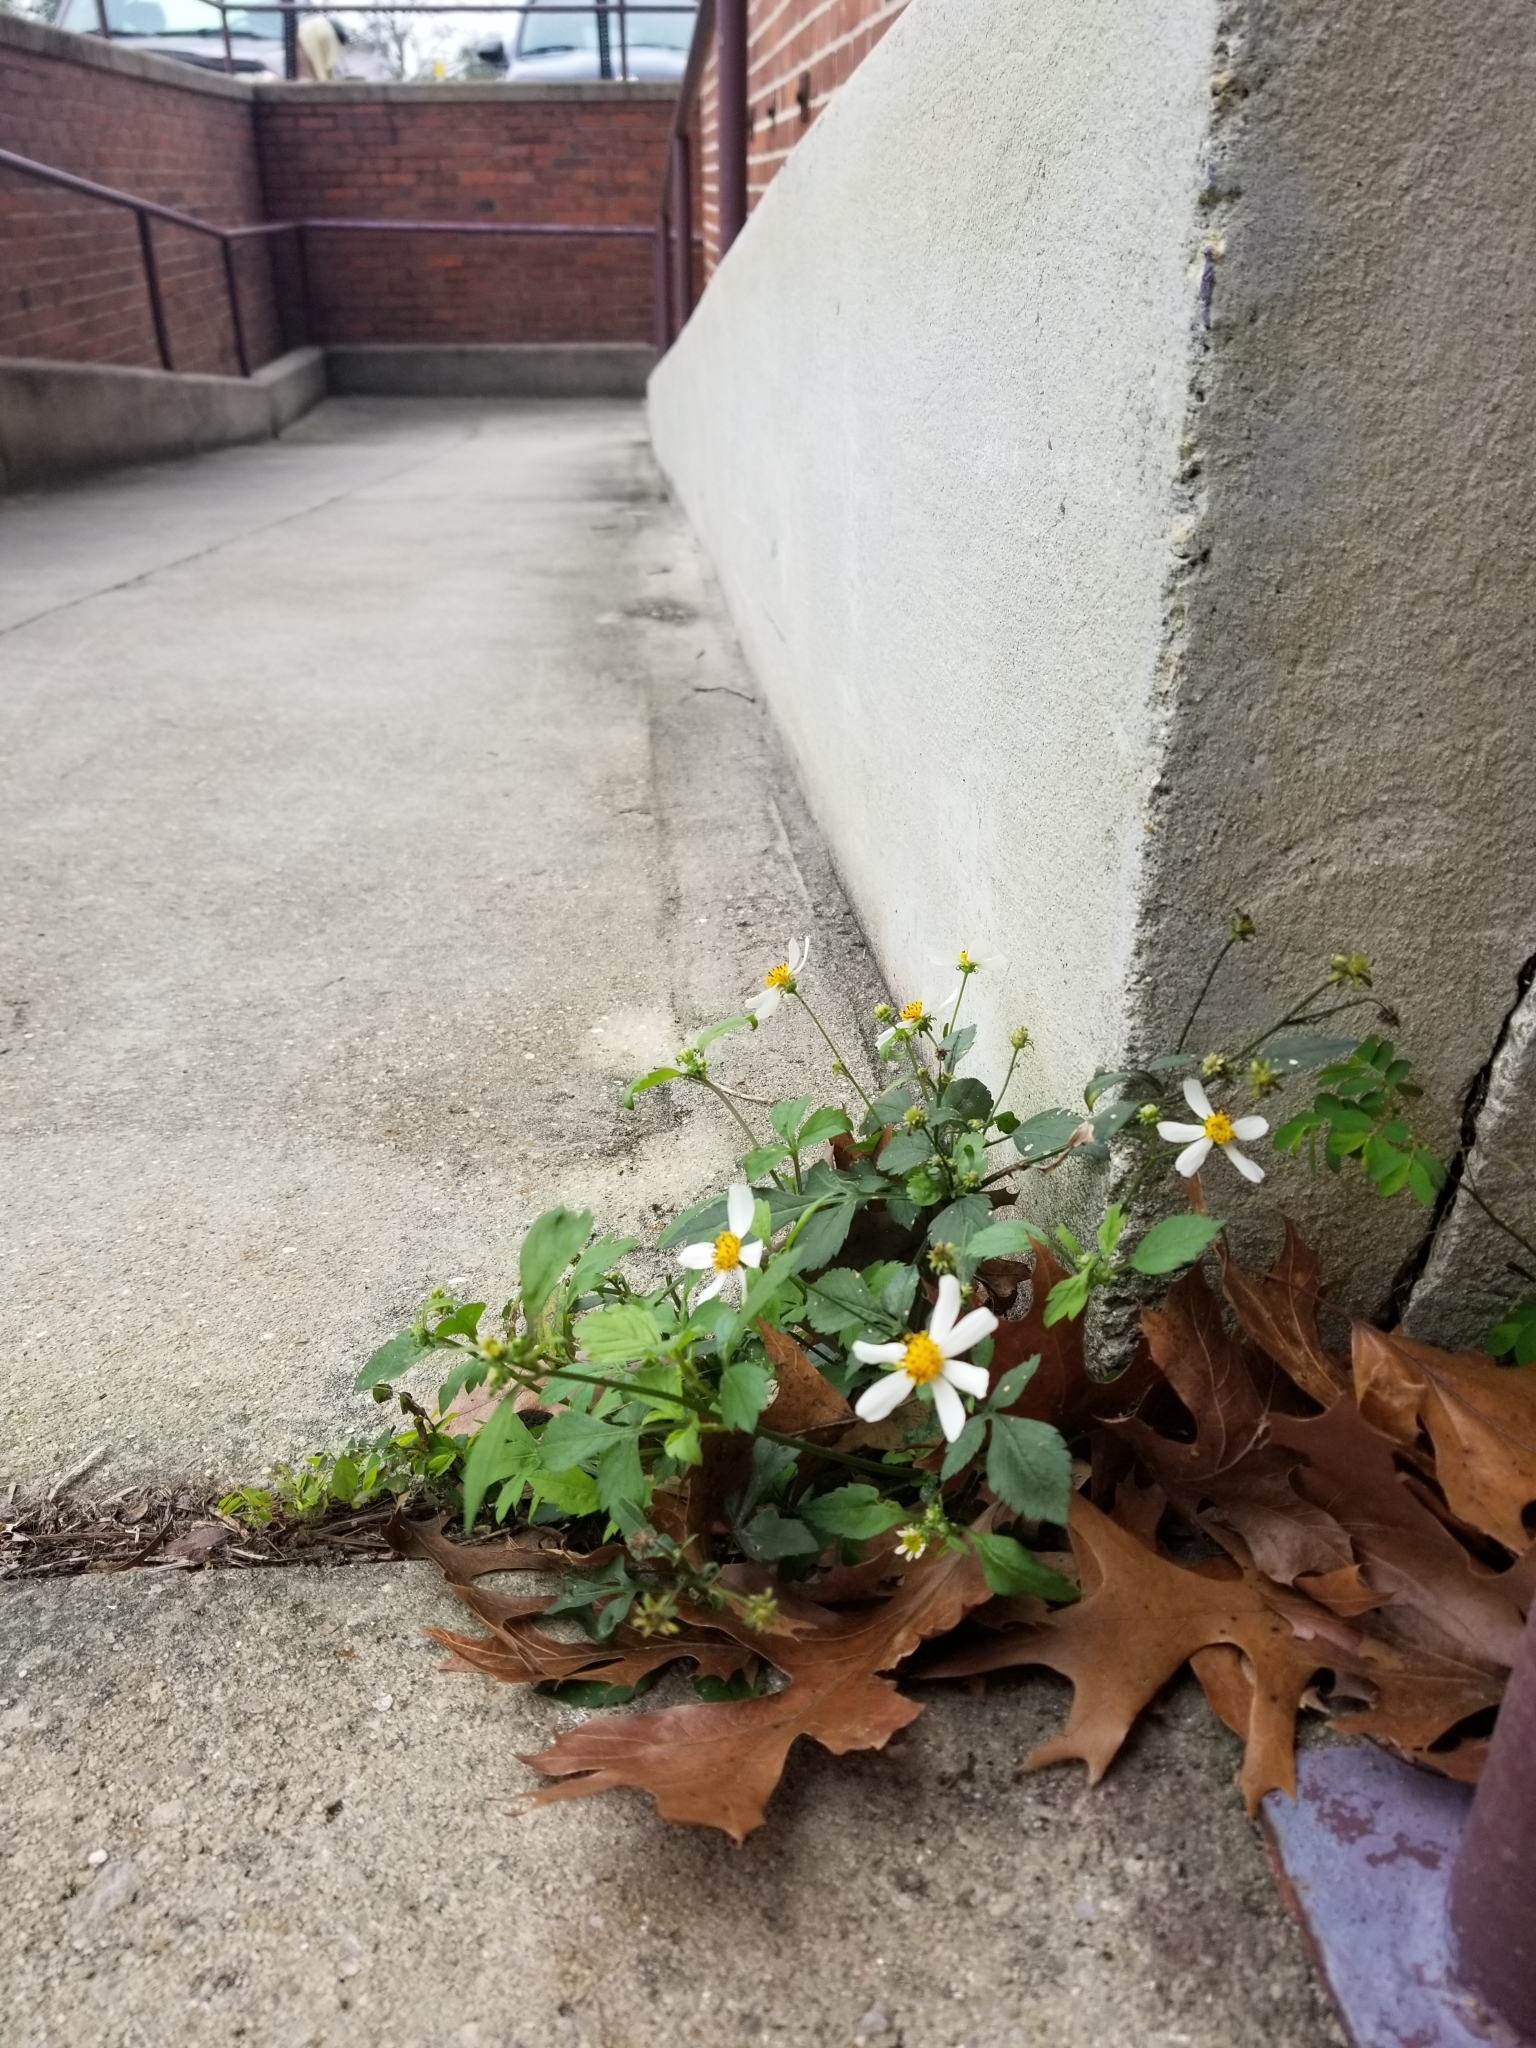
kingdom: Plantae
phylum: Tracheophyta
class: Magnoliopsida
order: Asterales
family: Asteraceae
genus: Bidens
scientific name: Bidens alba
